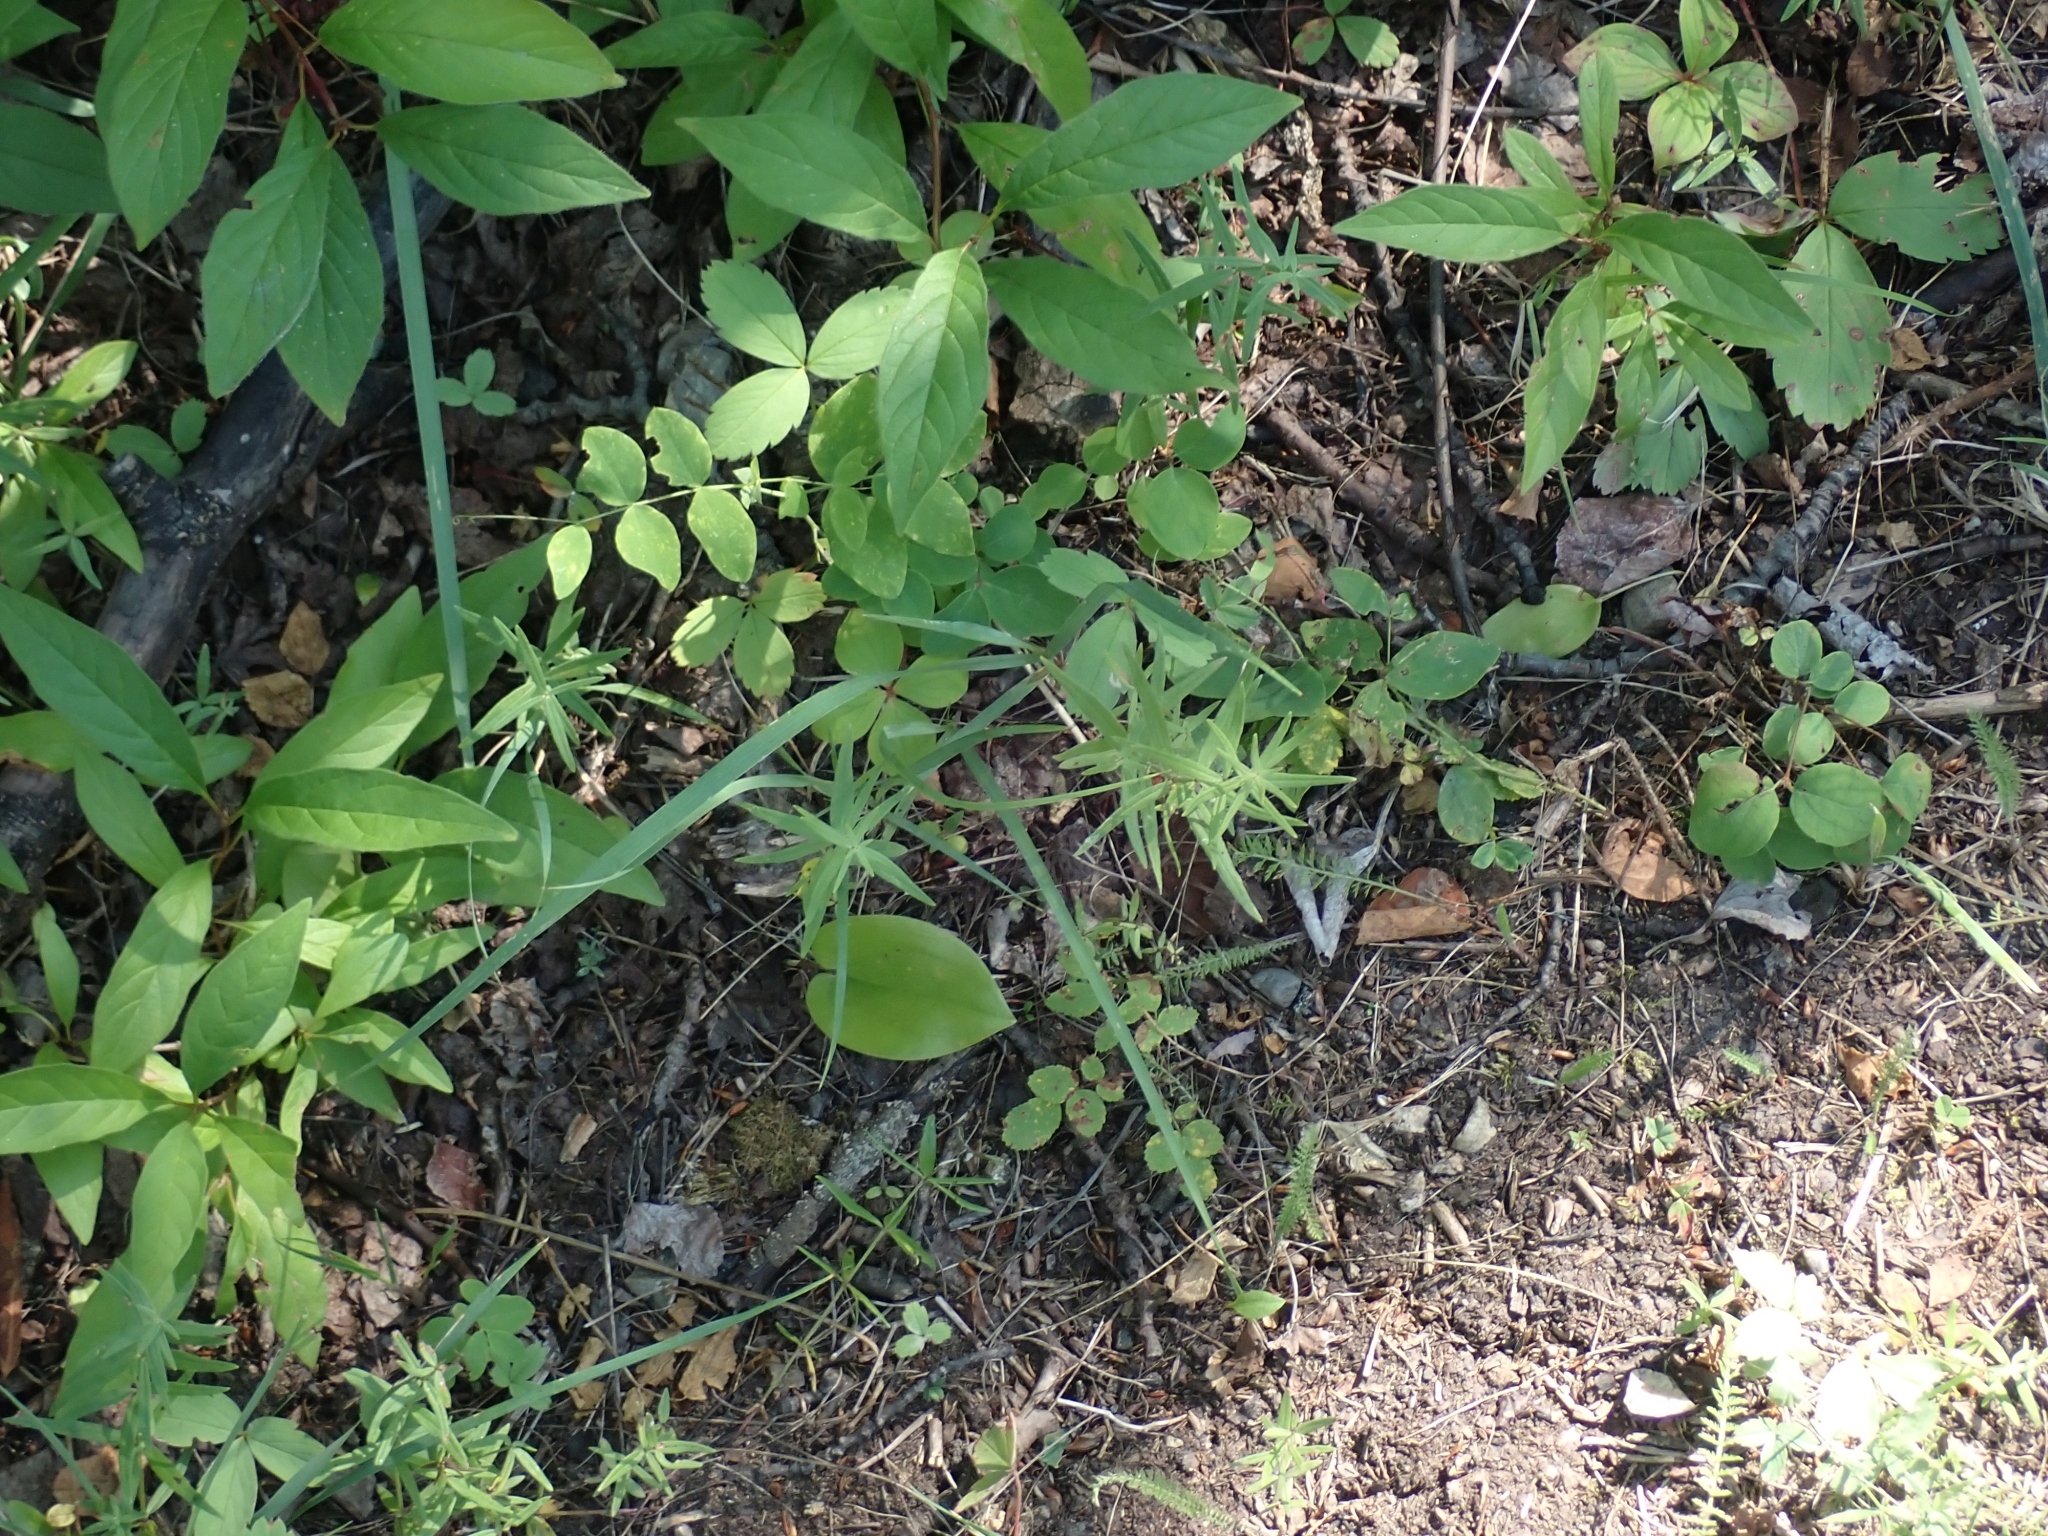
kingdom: Plantae
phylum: Tracheophyta
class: Magnoliopsida
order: Gentianales
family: Rubiaceae
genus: Galium
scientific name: Galium boreale
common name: Northern bedstraw
